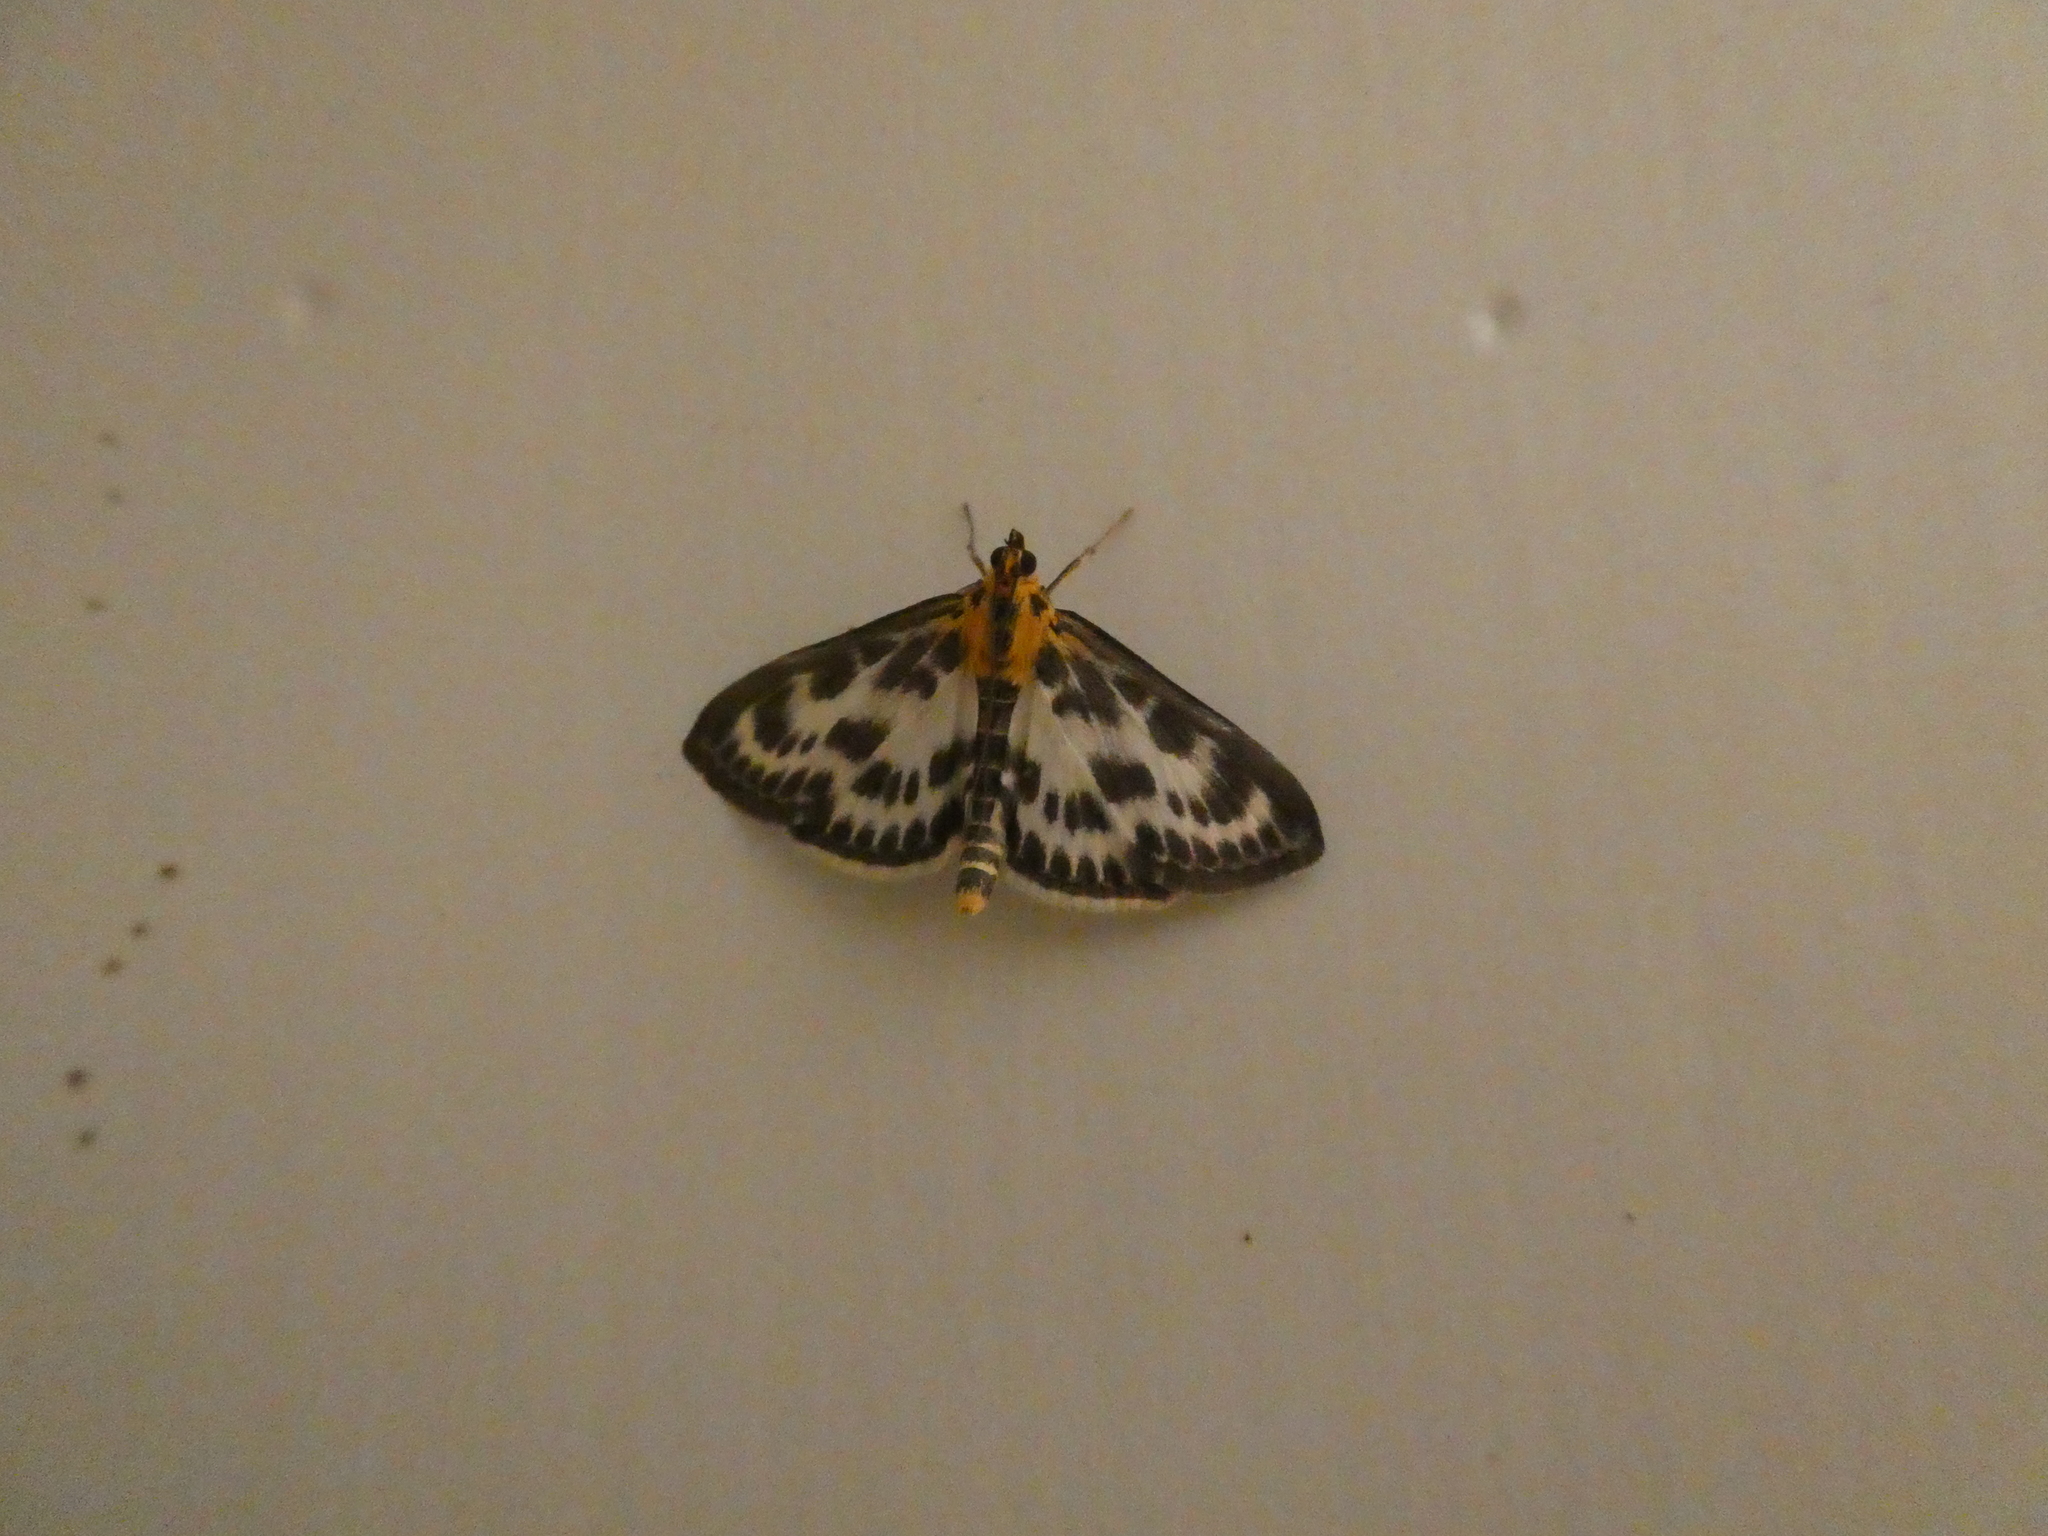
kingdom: Animalia
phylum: Arthropoda
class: Insecta
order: Lepidoptera
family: Crambidae
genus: Anania
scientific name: Anania hortulata
